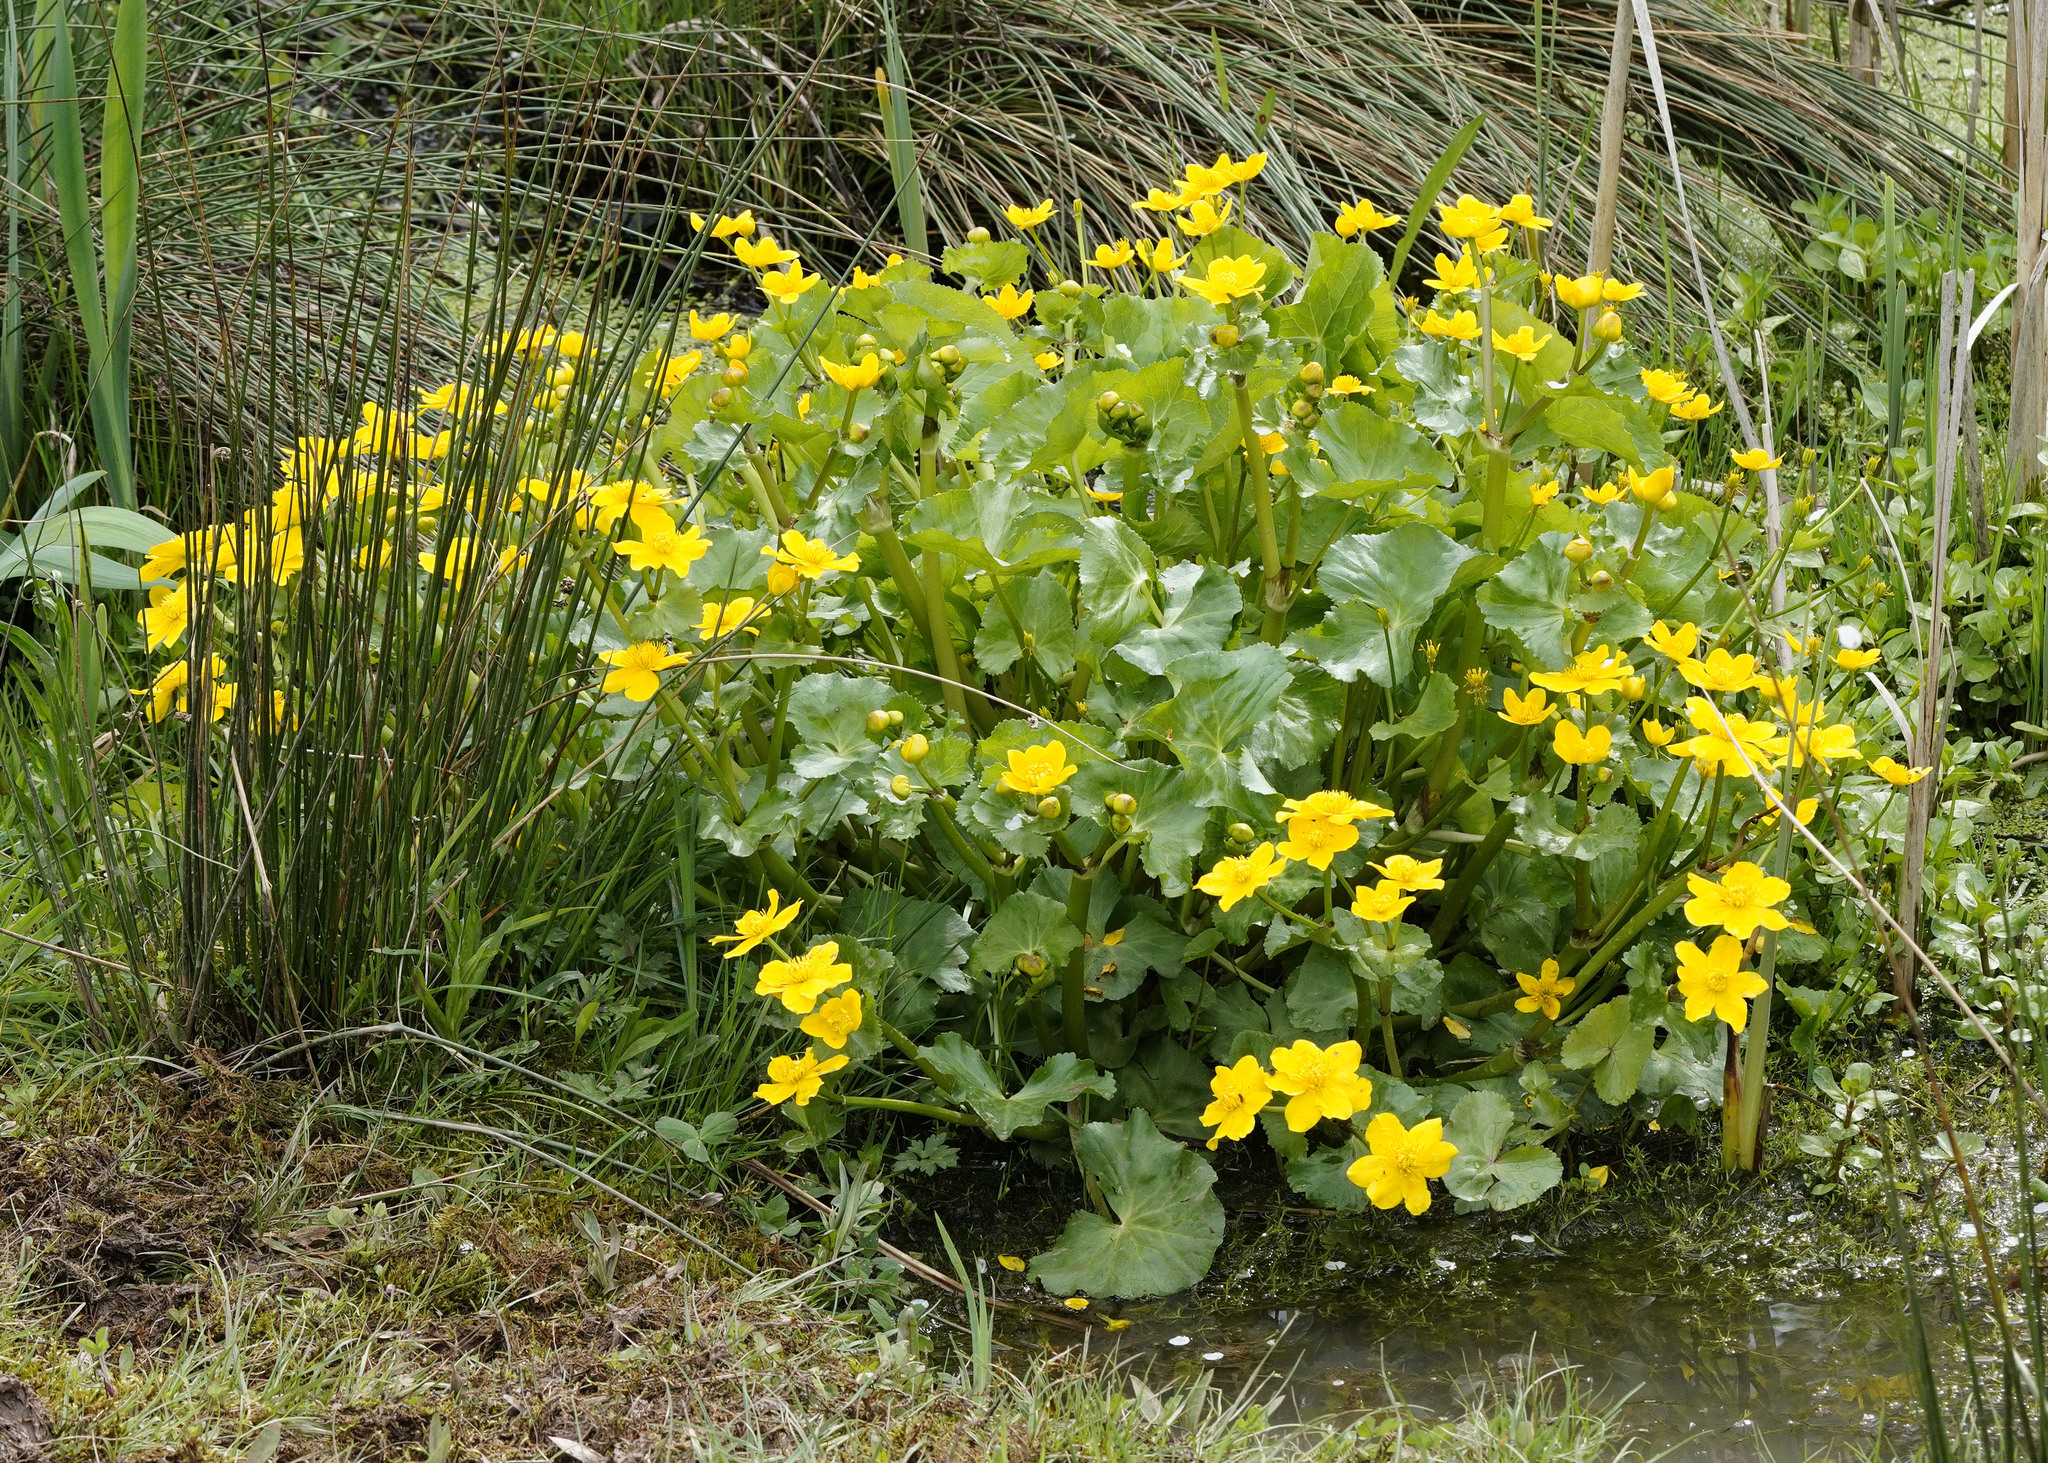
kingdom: Plantae
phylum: Tracheophyta
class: Magnoliopsida
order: Ranunculales
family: Ranunculaceae
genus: Caltha
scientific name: Caltha palustris
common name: Marsh marigold
